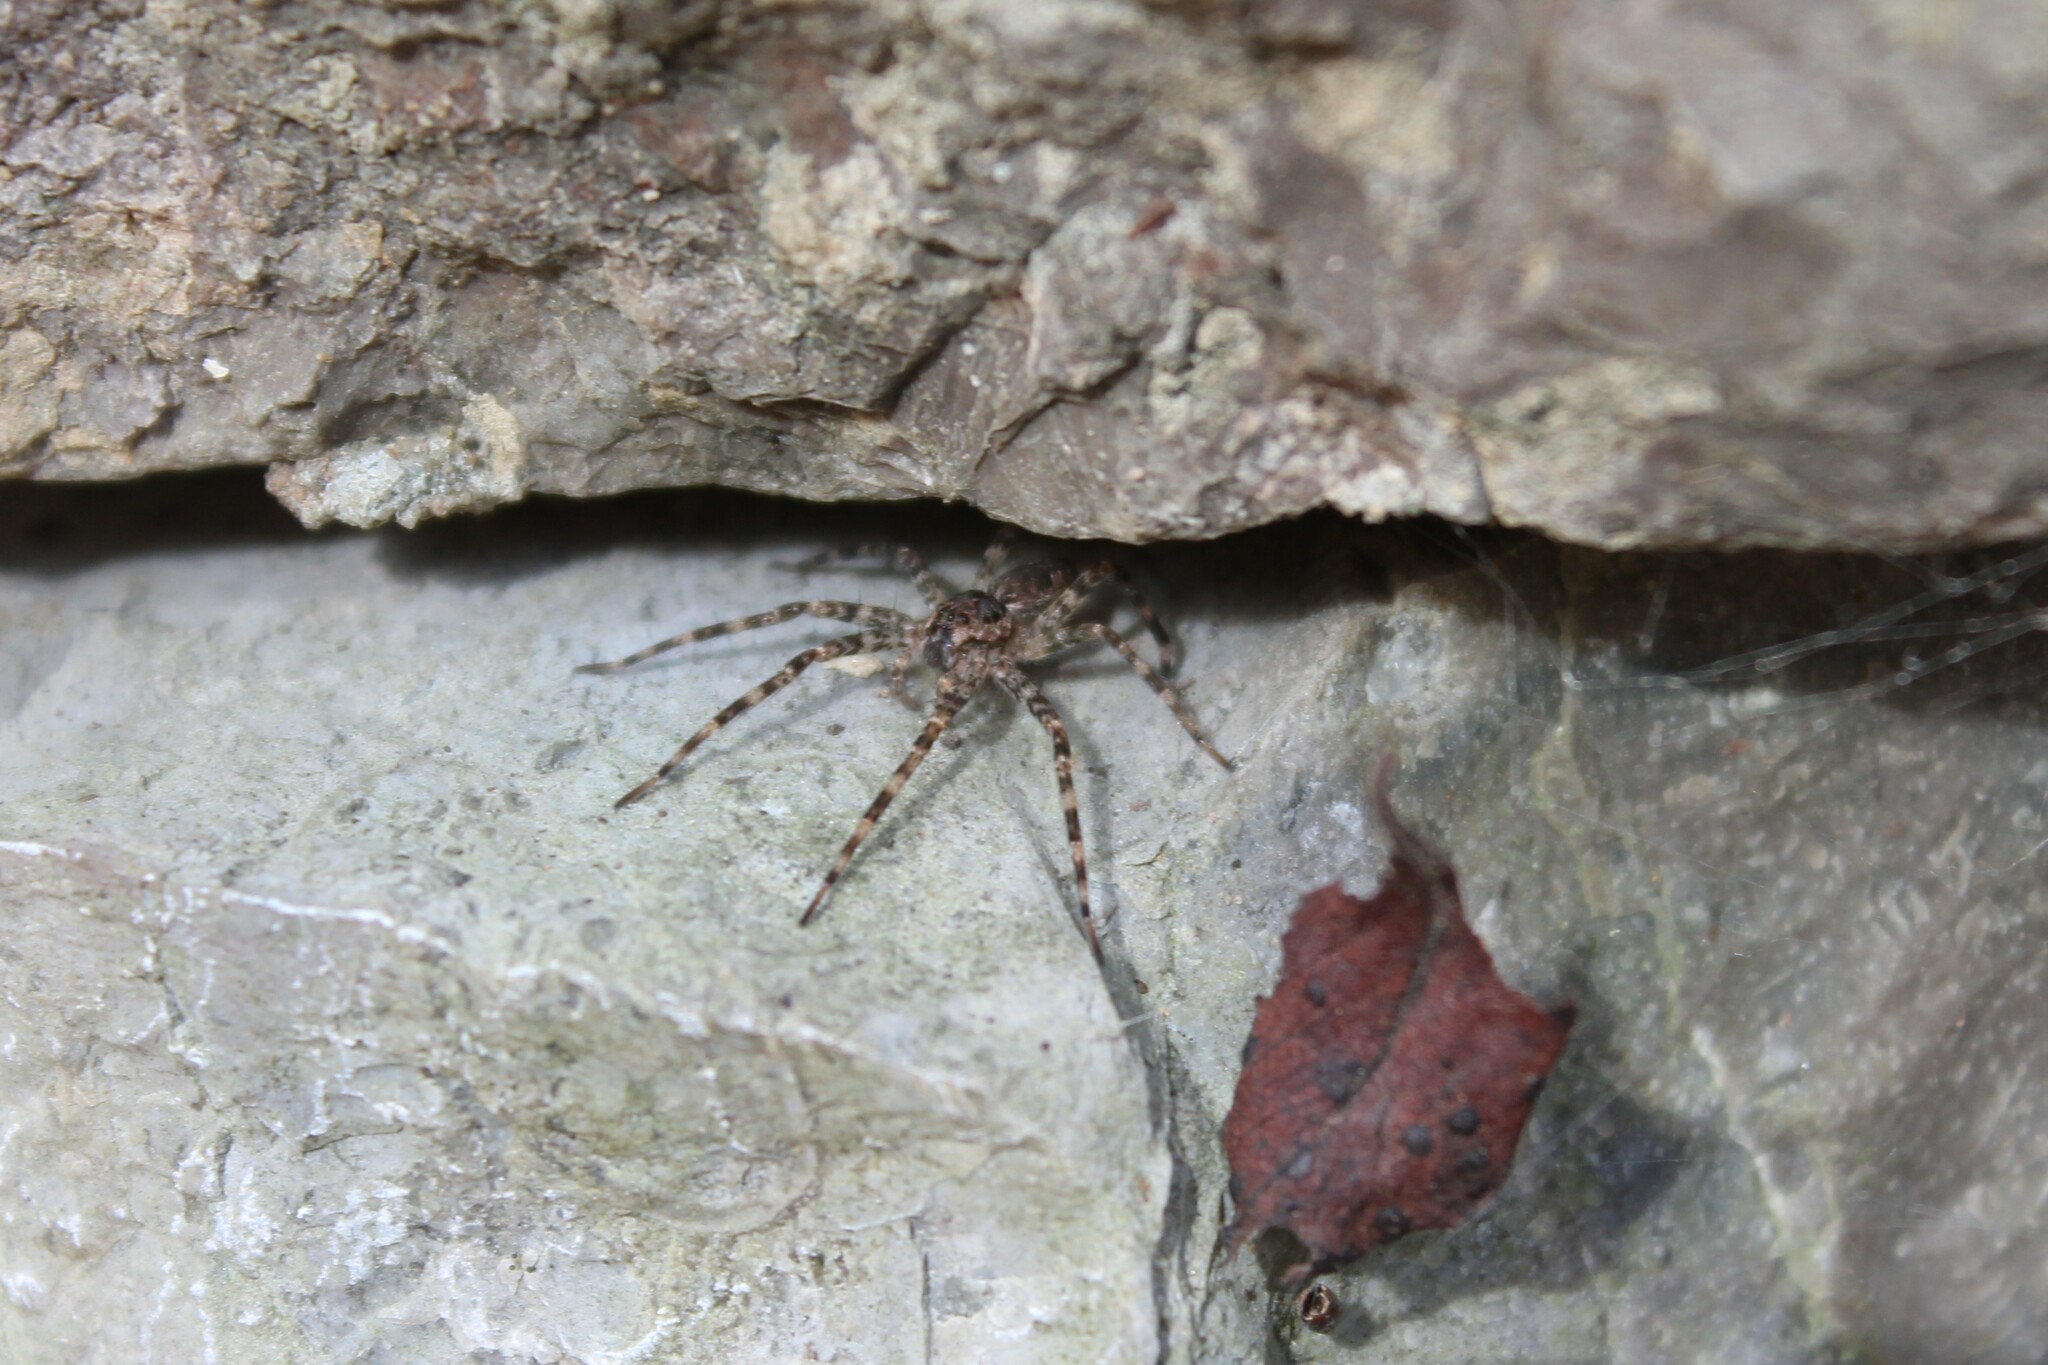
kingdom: Animalia
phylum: Arthropoda
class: Arachnida
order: Araneae
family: Pisauridae
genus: Dolomedes
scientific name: Dolomedes tenebrosus
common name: Dark fishing spider
